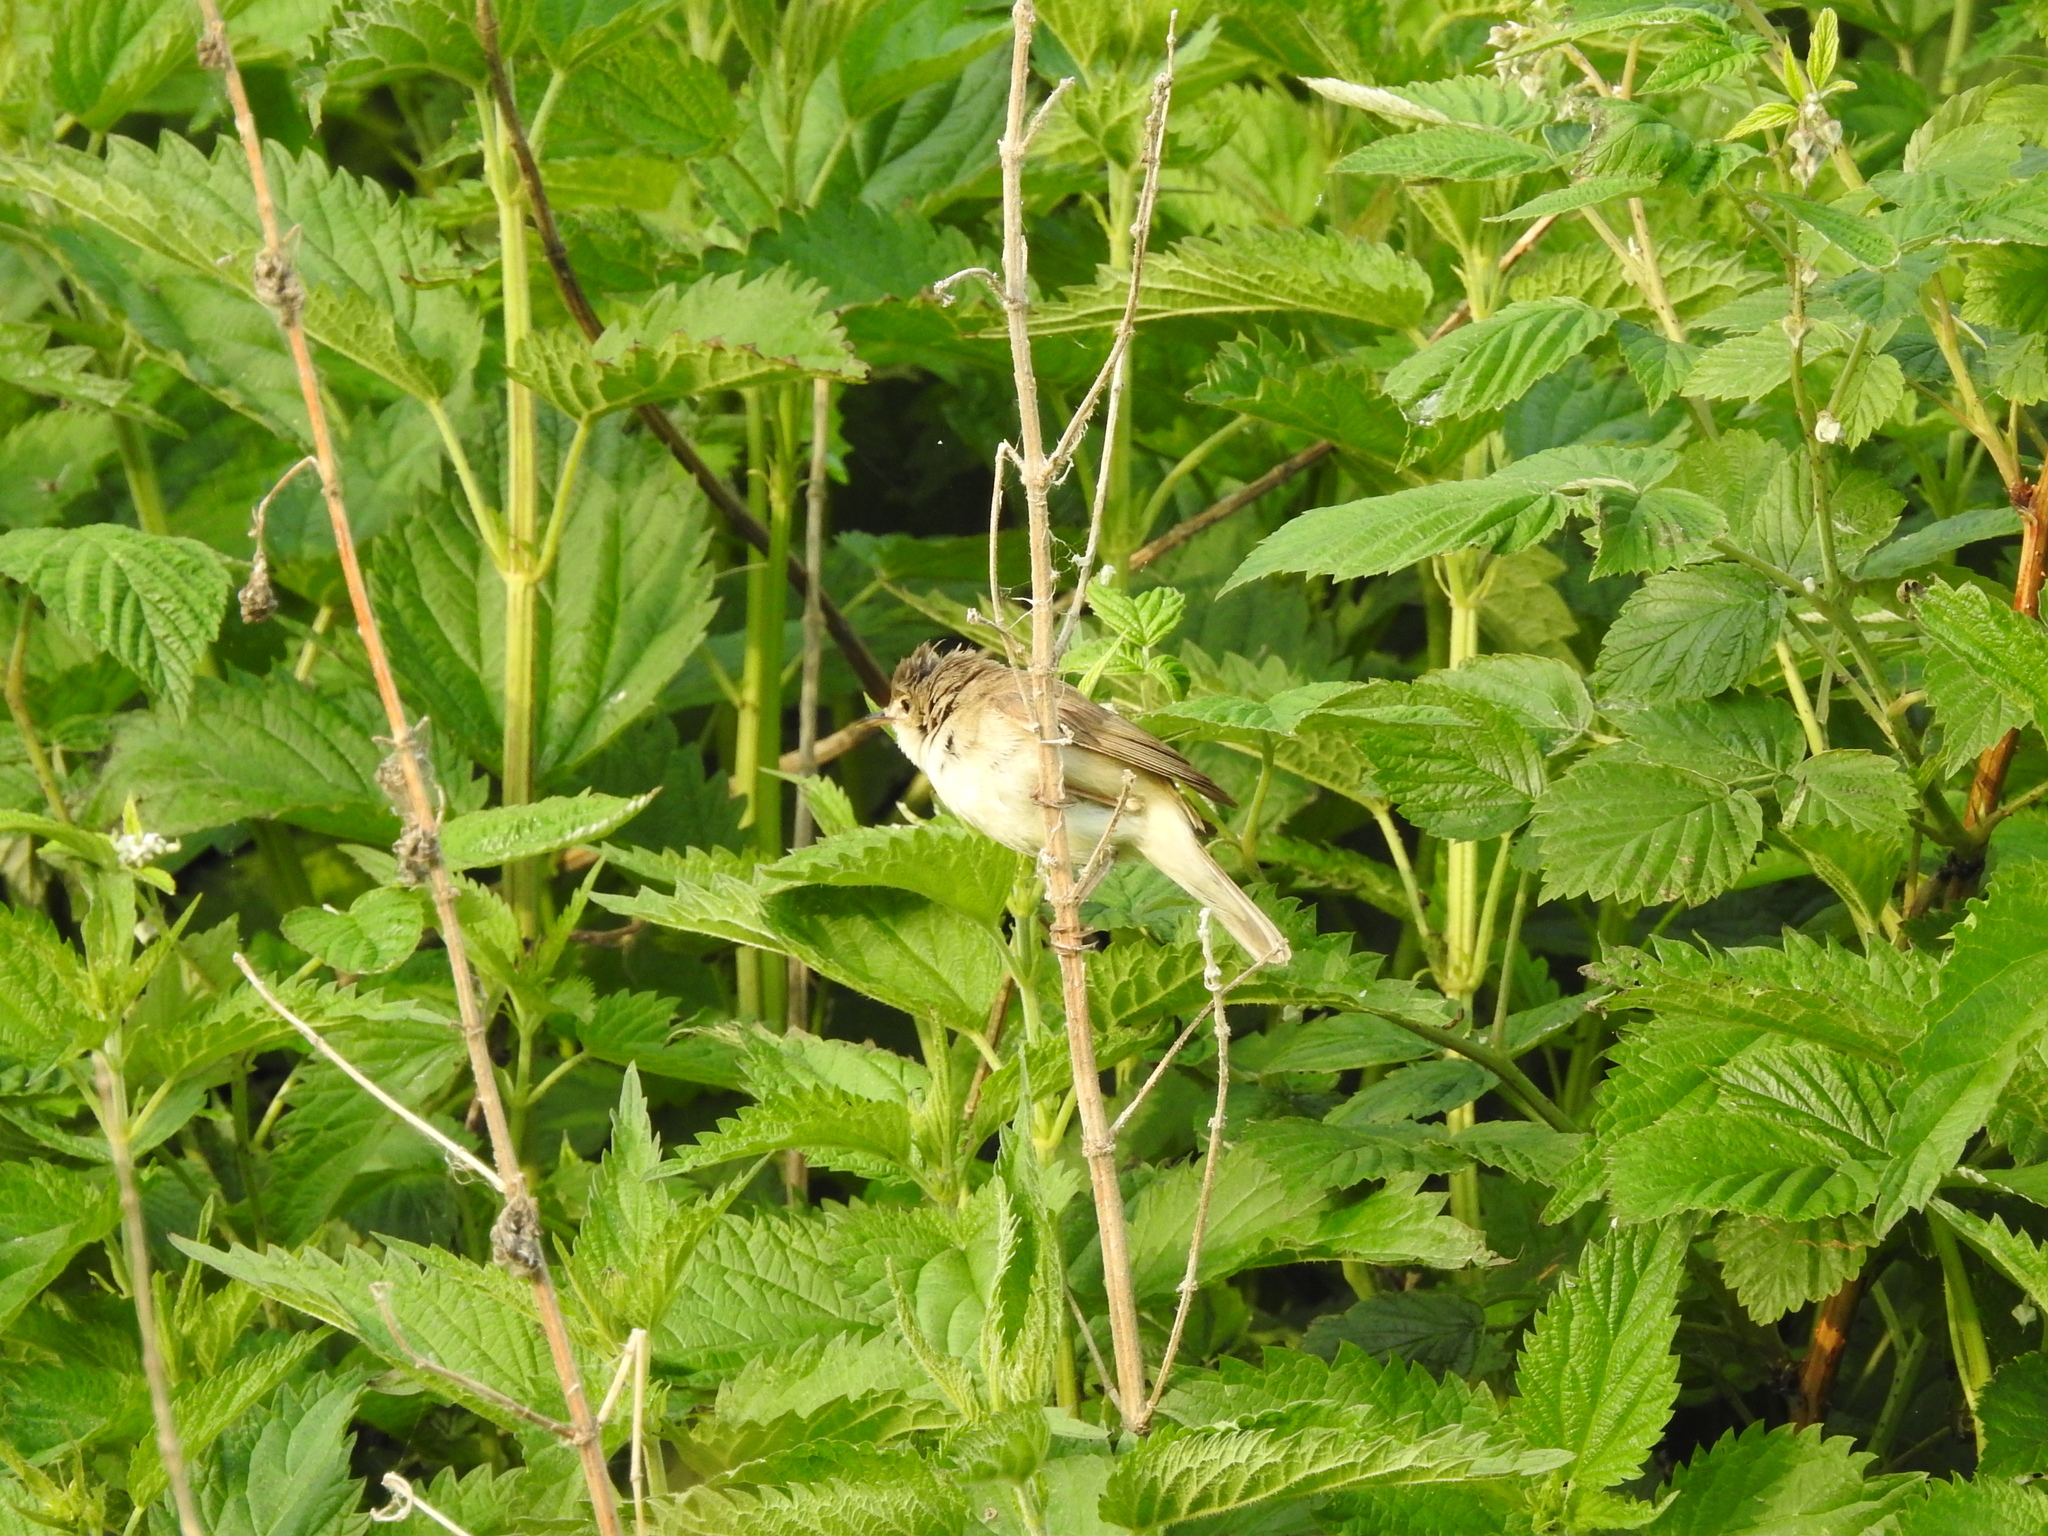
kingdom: Animalia
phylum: Chordata
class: Aves
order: Passeriformes
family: Acrocephalidae
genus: Acrocephalus
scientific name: Acrocephalus dumetorum
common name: Blyth's reed warbler
